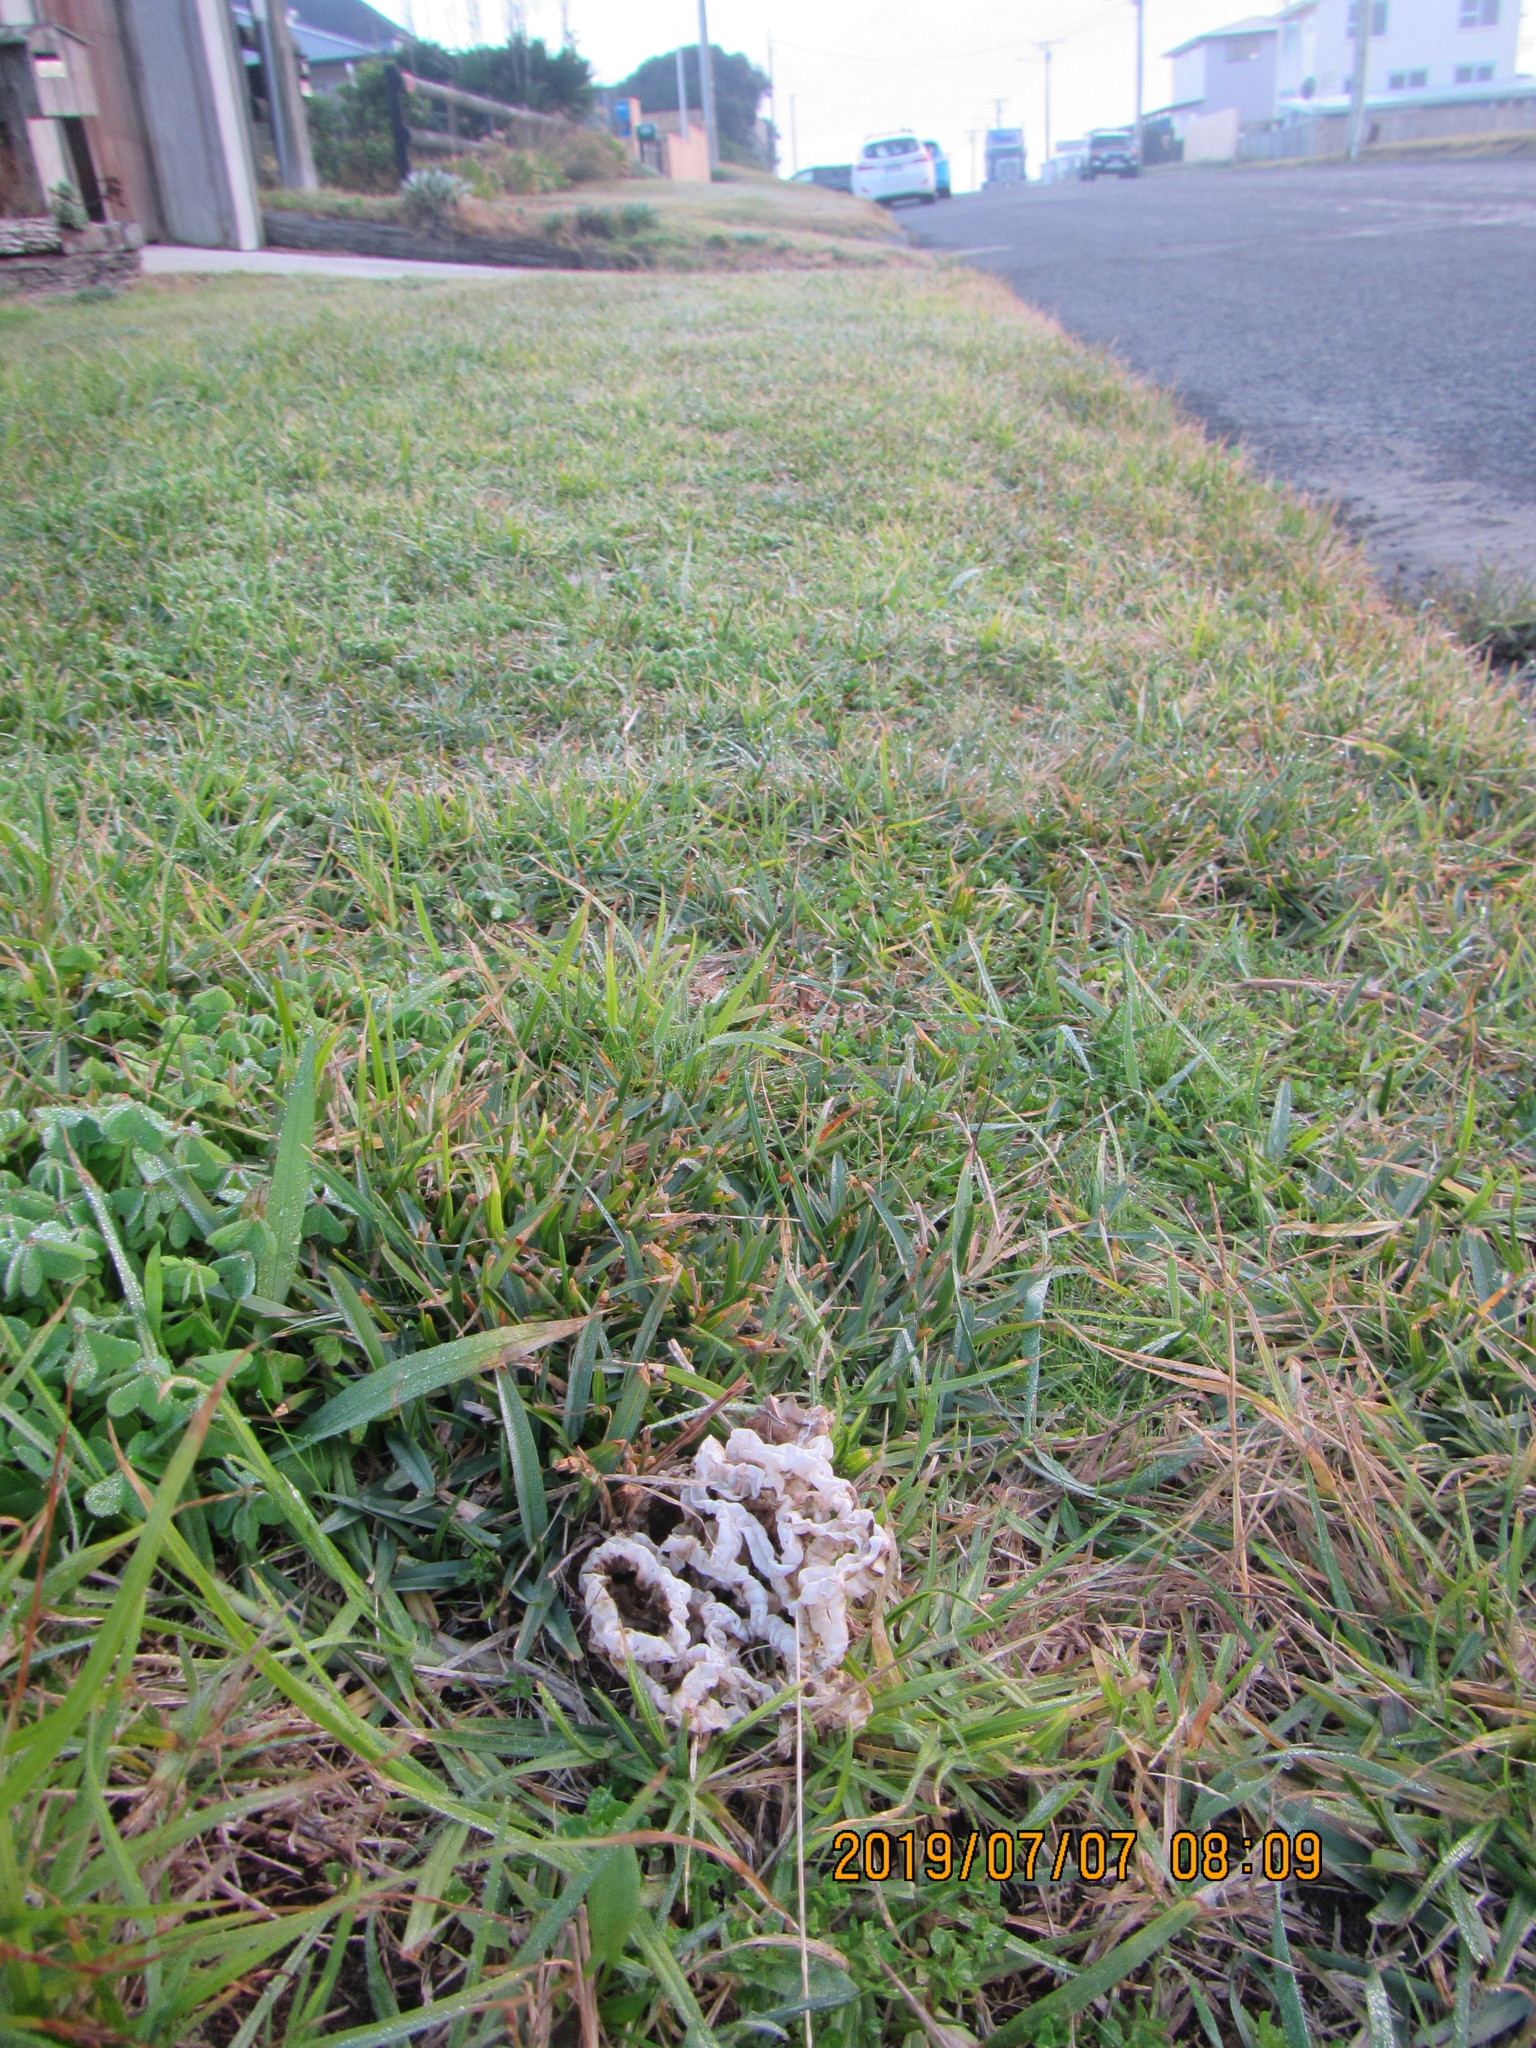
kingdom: Fungi
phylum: Basidiomycota
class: Agaricomycetes
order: Phallales
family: Phallaceae
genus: Ileodictyon
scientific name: Ileodictyon cibarium
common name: Basket fungus
